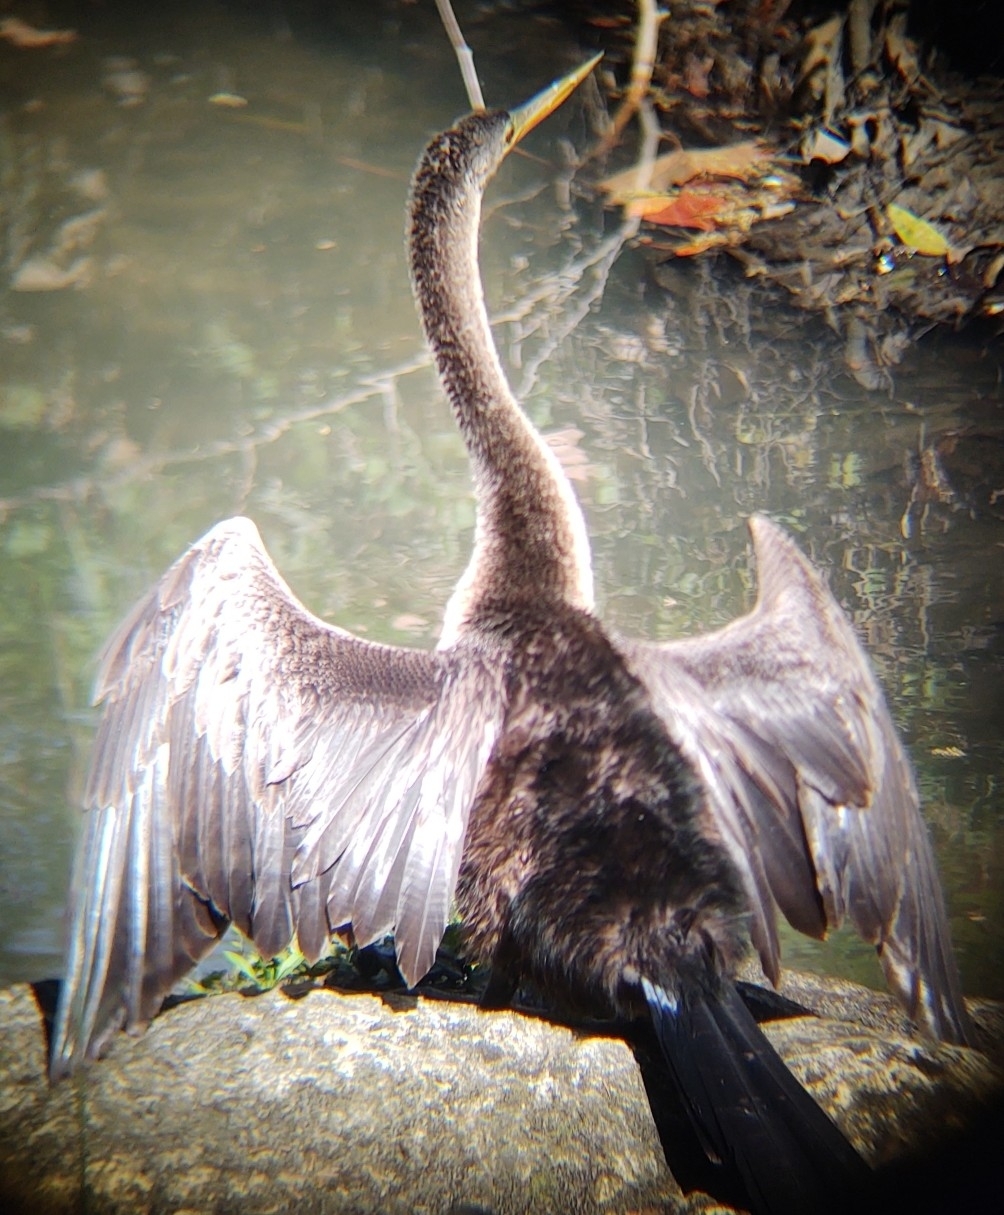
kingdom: Animalia
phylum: Chordata
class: Aves
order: Suliformes
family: Anhingidae
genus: Anhinga
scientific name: Anhinga anhinga
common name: Anhinga
